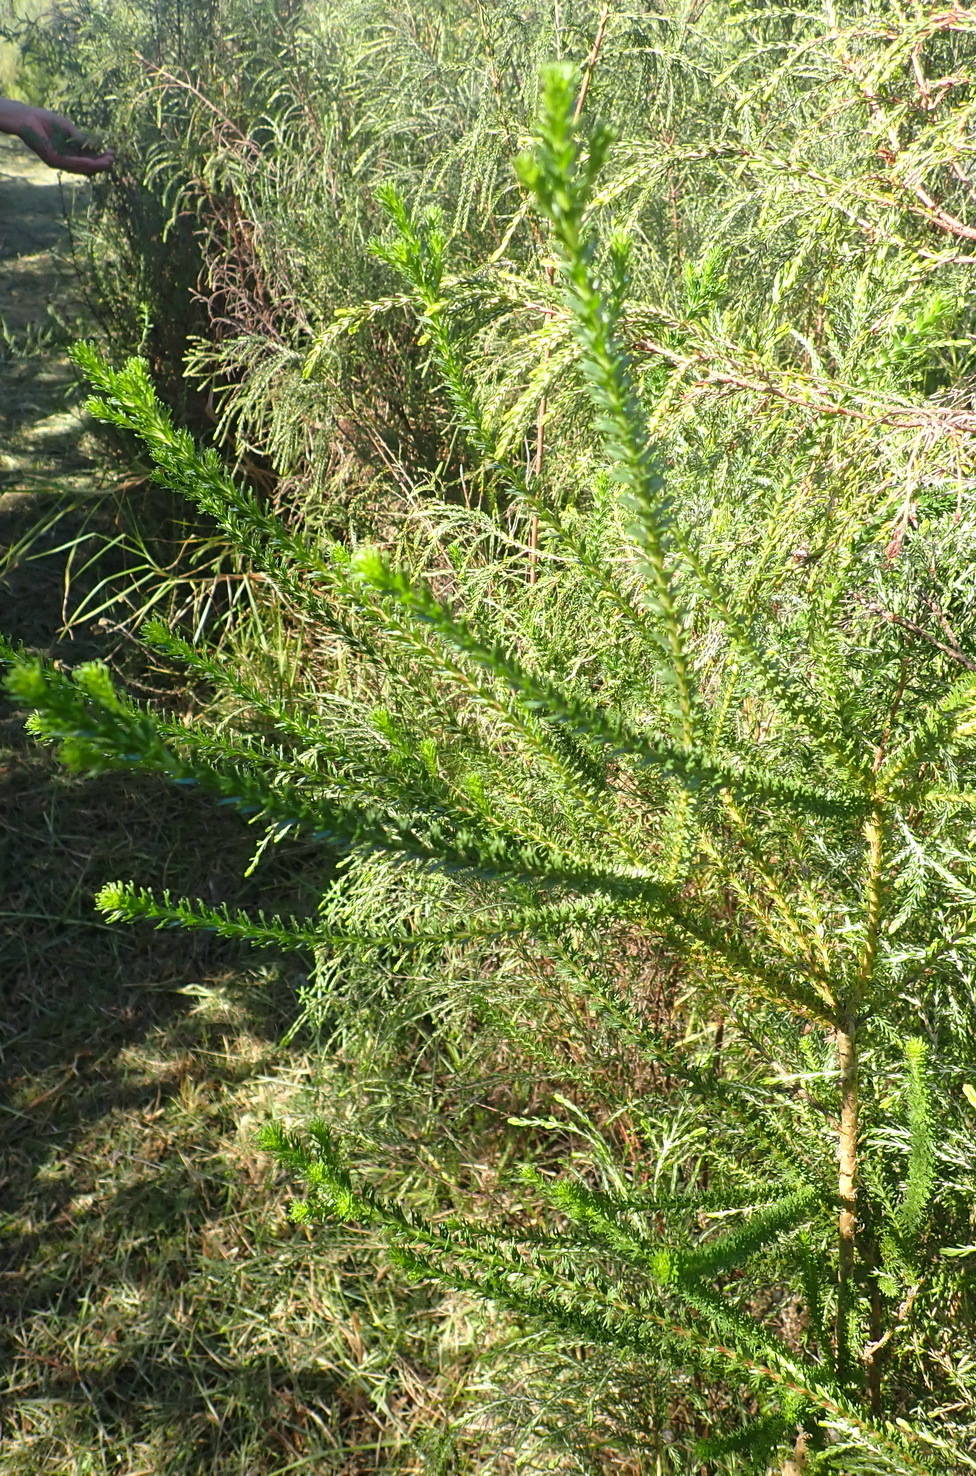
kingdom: Plantae
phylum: Tracheophyta
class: Magnoliopsida
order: Asterales
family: Asteraceae
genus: Euryops
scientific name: Euryops virgineus
